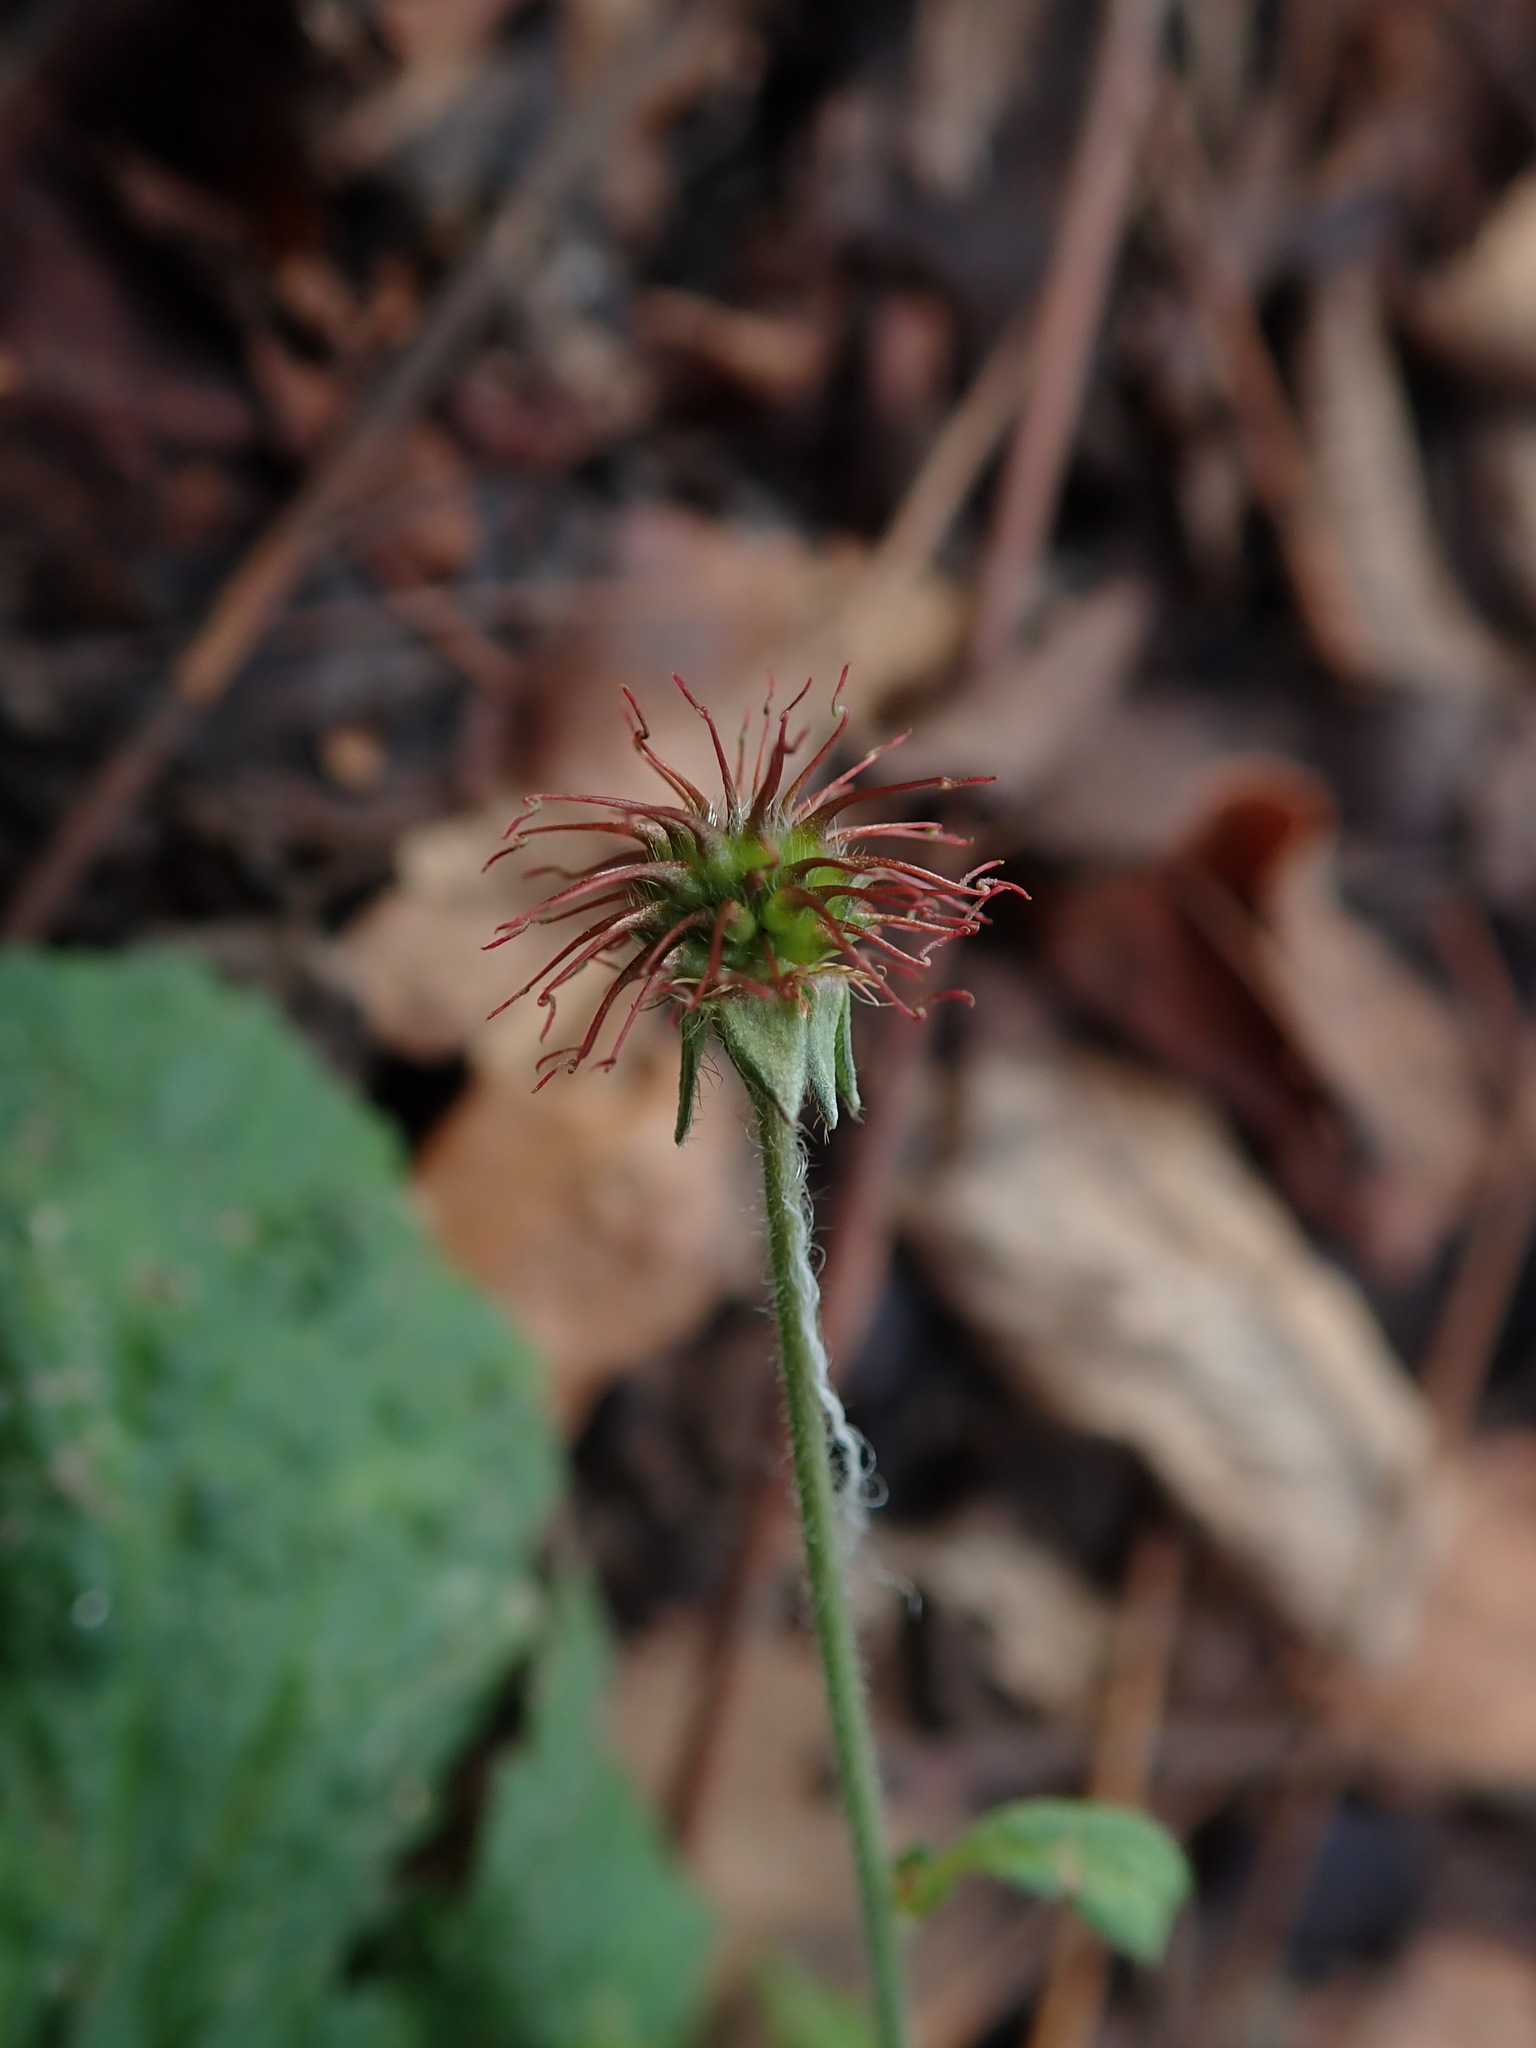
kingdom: Plantae
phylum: Tracheophyta
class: Magnoliopsida
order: Rosales
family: Rosaceae
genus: Geum
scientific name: Geum urbanum
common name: Wood avens
